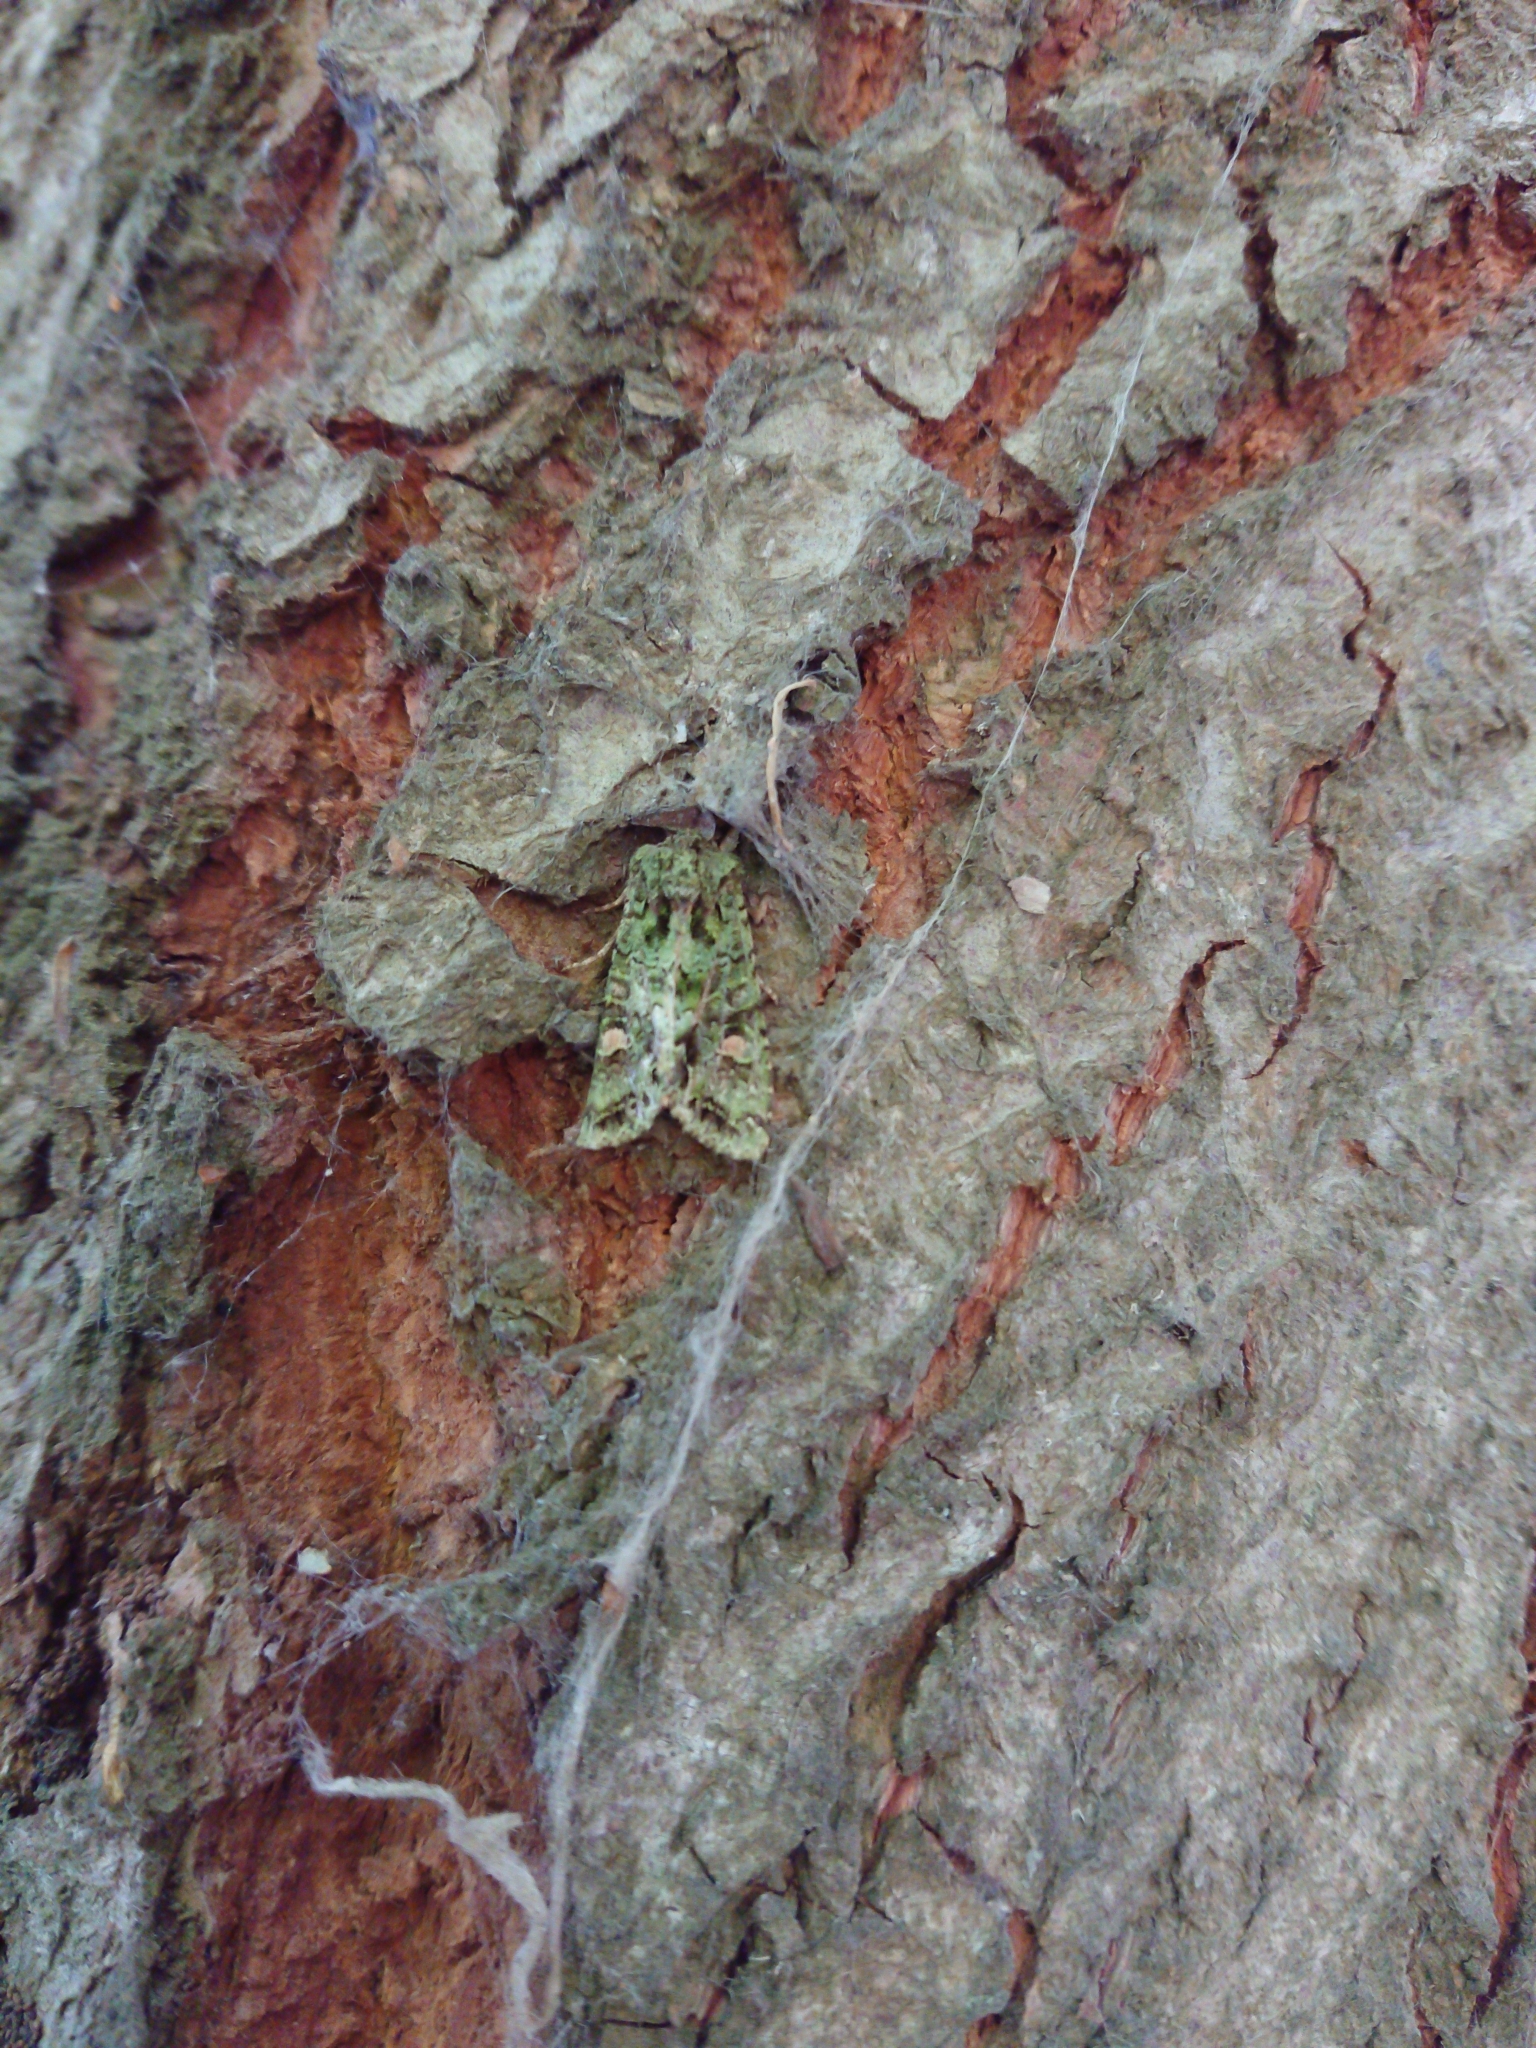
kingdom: Animalia
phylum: Arthropoda
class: Insecta
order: Lepidoptera
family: Noctuidae
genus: Ichneutica
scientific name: Ichneutica
